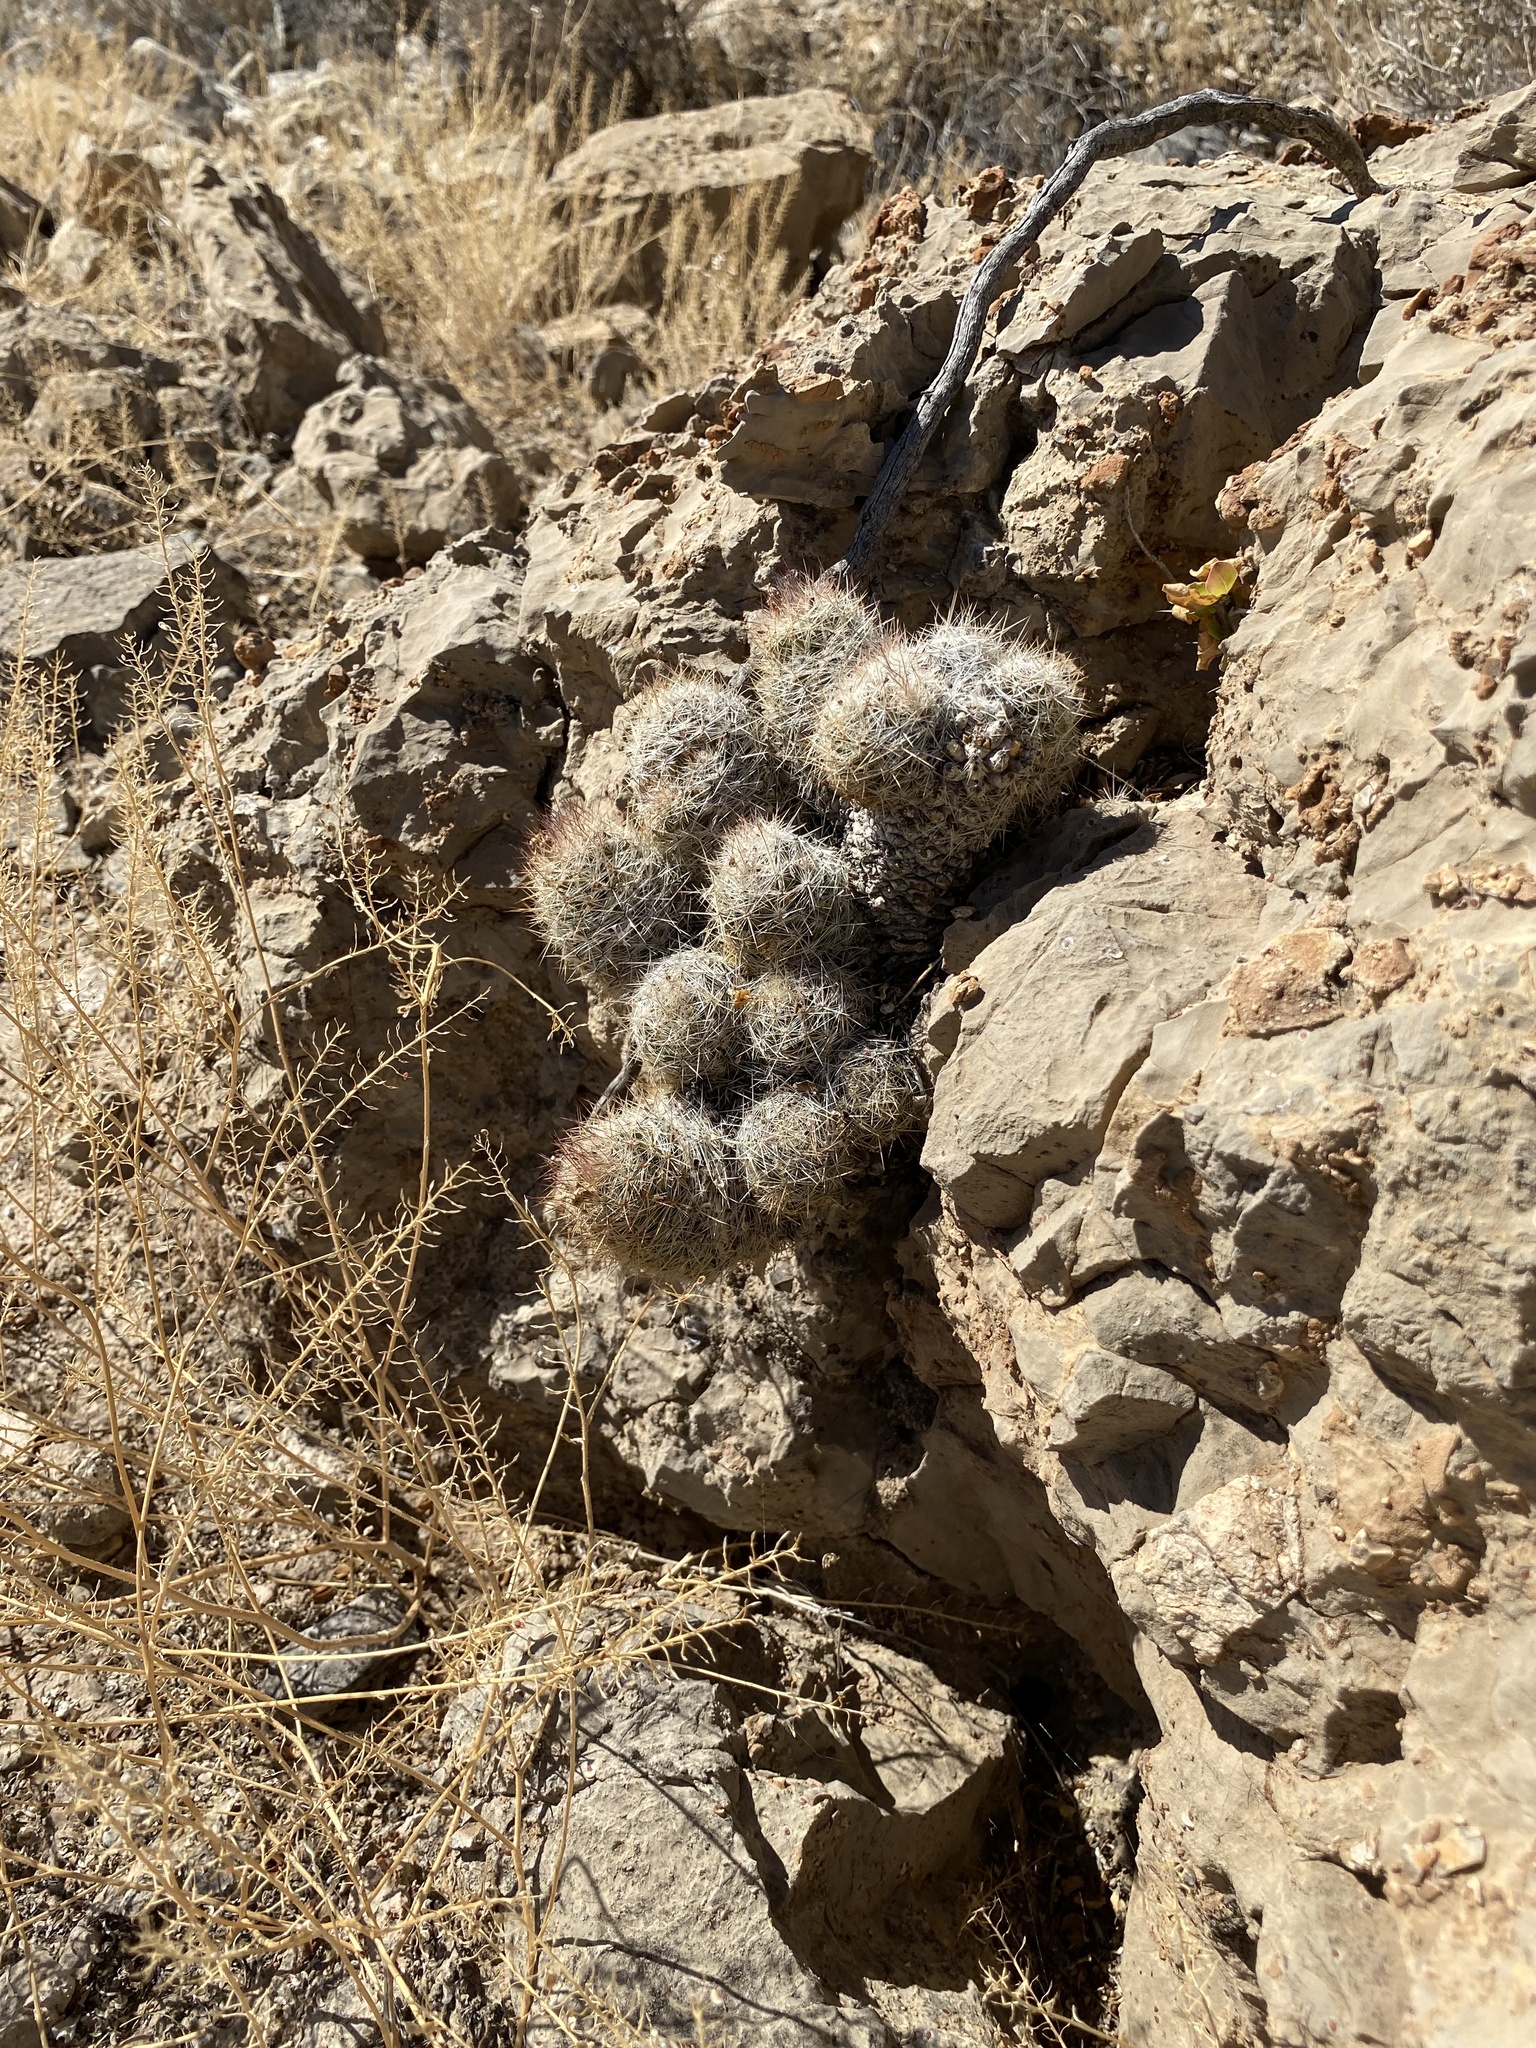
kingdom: Plantae
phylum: Tracheophyta
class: Magnoliopsida
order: Caryophyllales
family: Cactaceae
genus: Pelecyphora
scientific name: Pelecyphora tuberculosa
